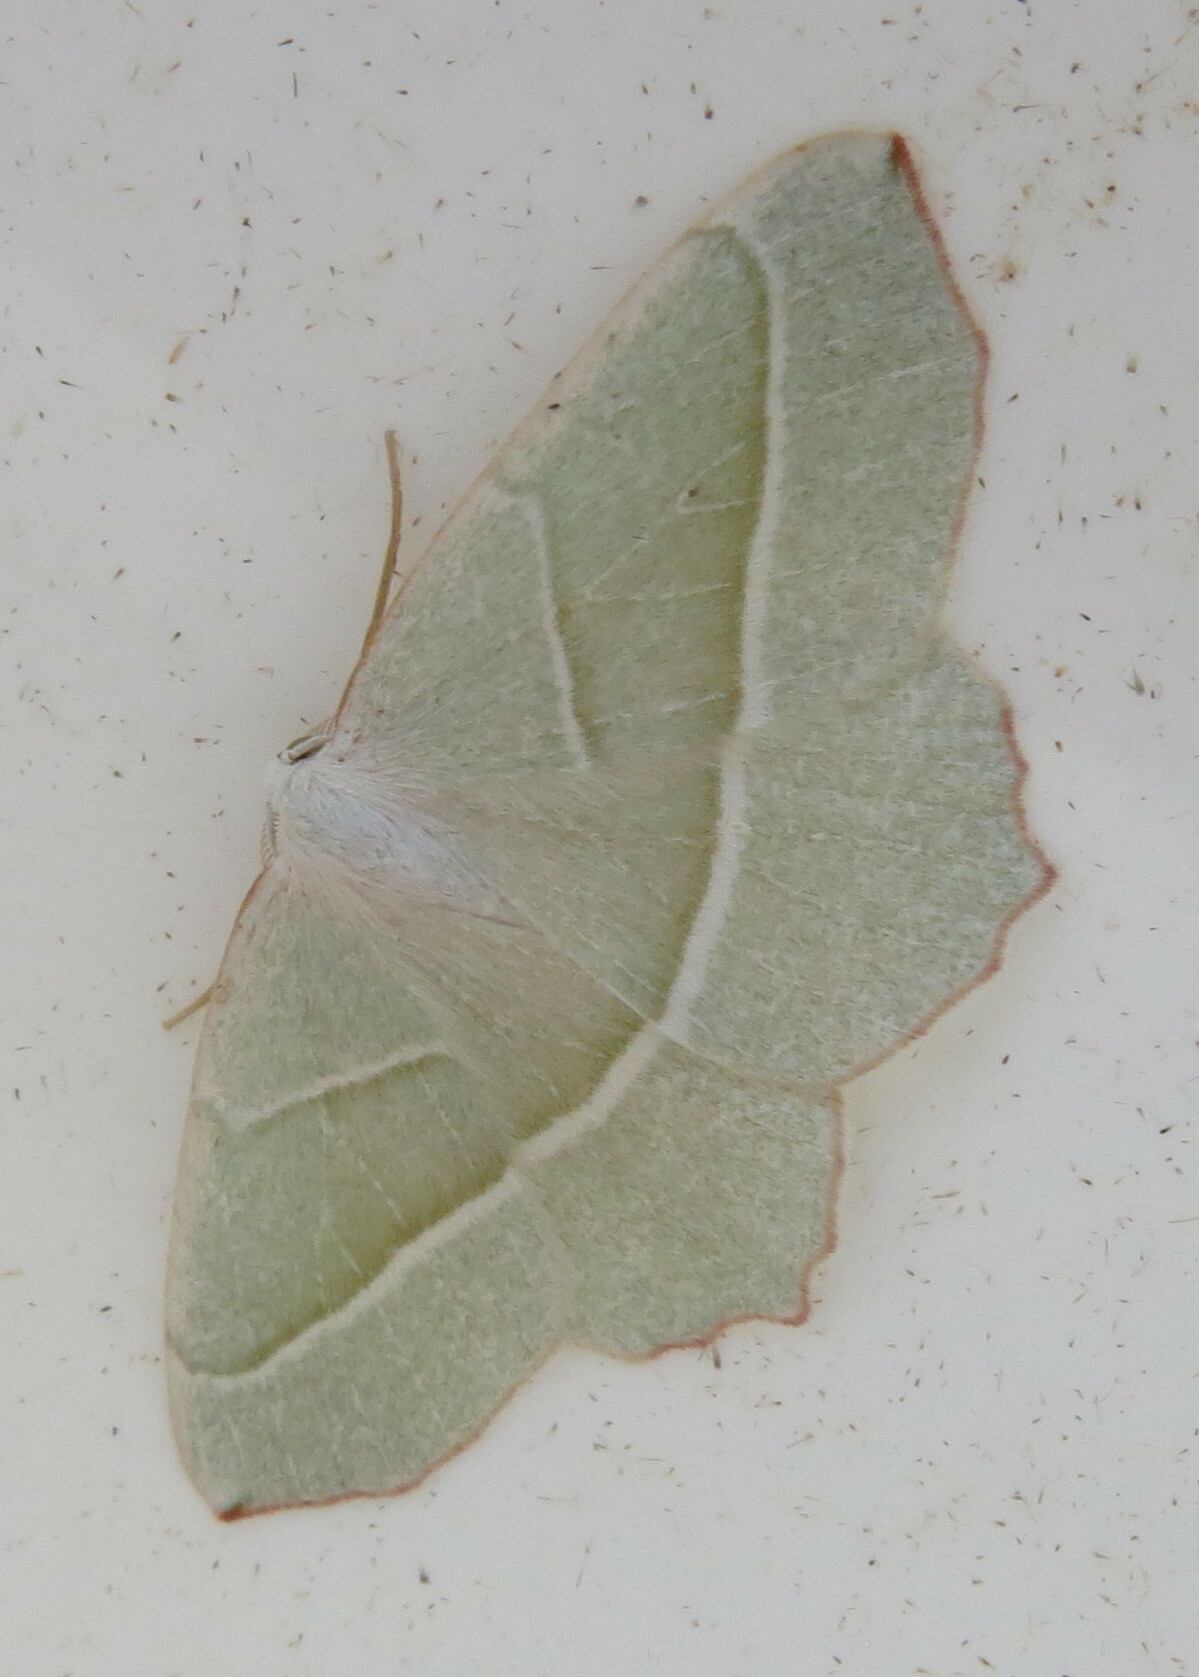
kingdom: Animalia
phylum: Arthropoda
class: Insecta
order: Lepidoptera
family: Geometridae
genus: Campaea
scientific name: Campaea margaritaria
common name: Light emerald
